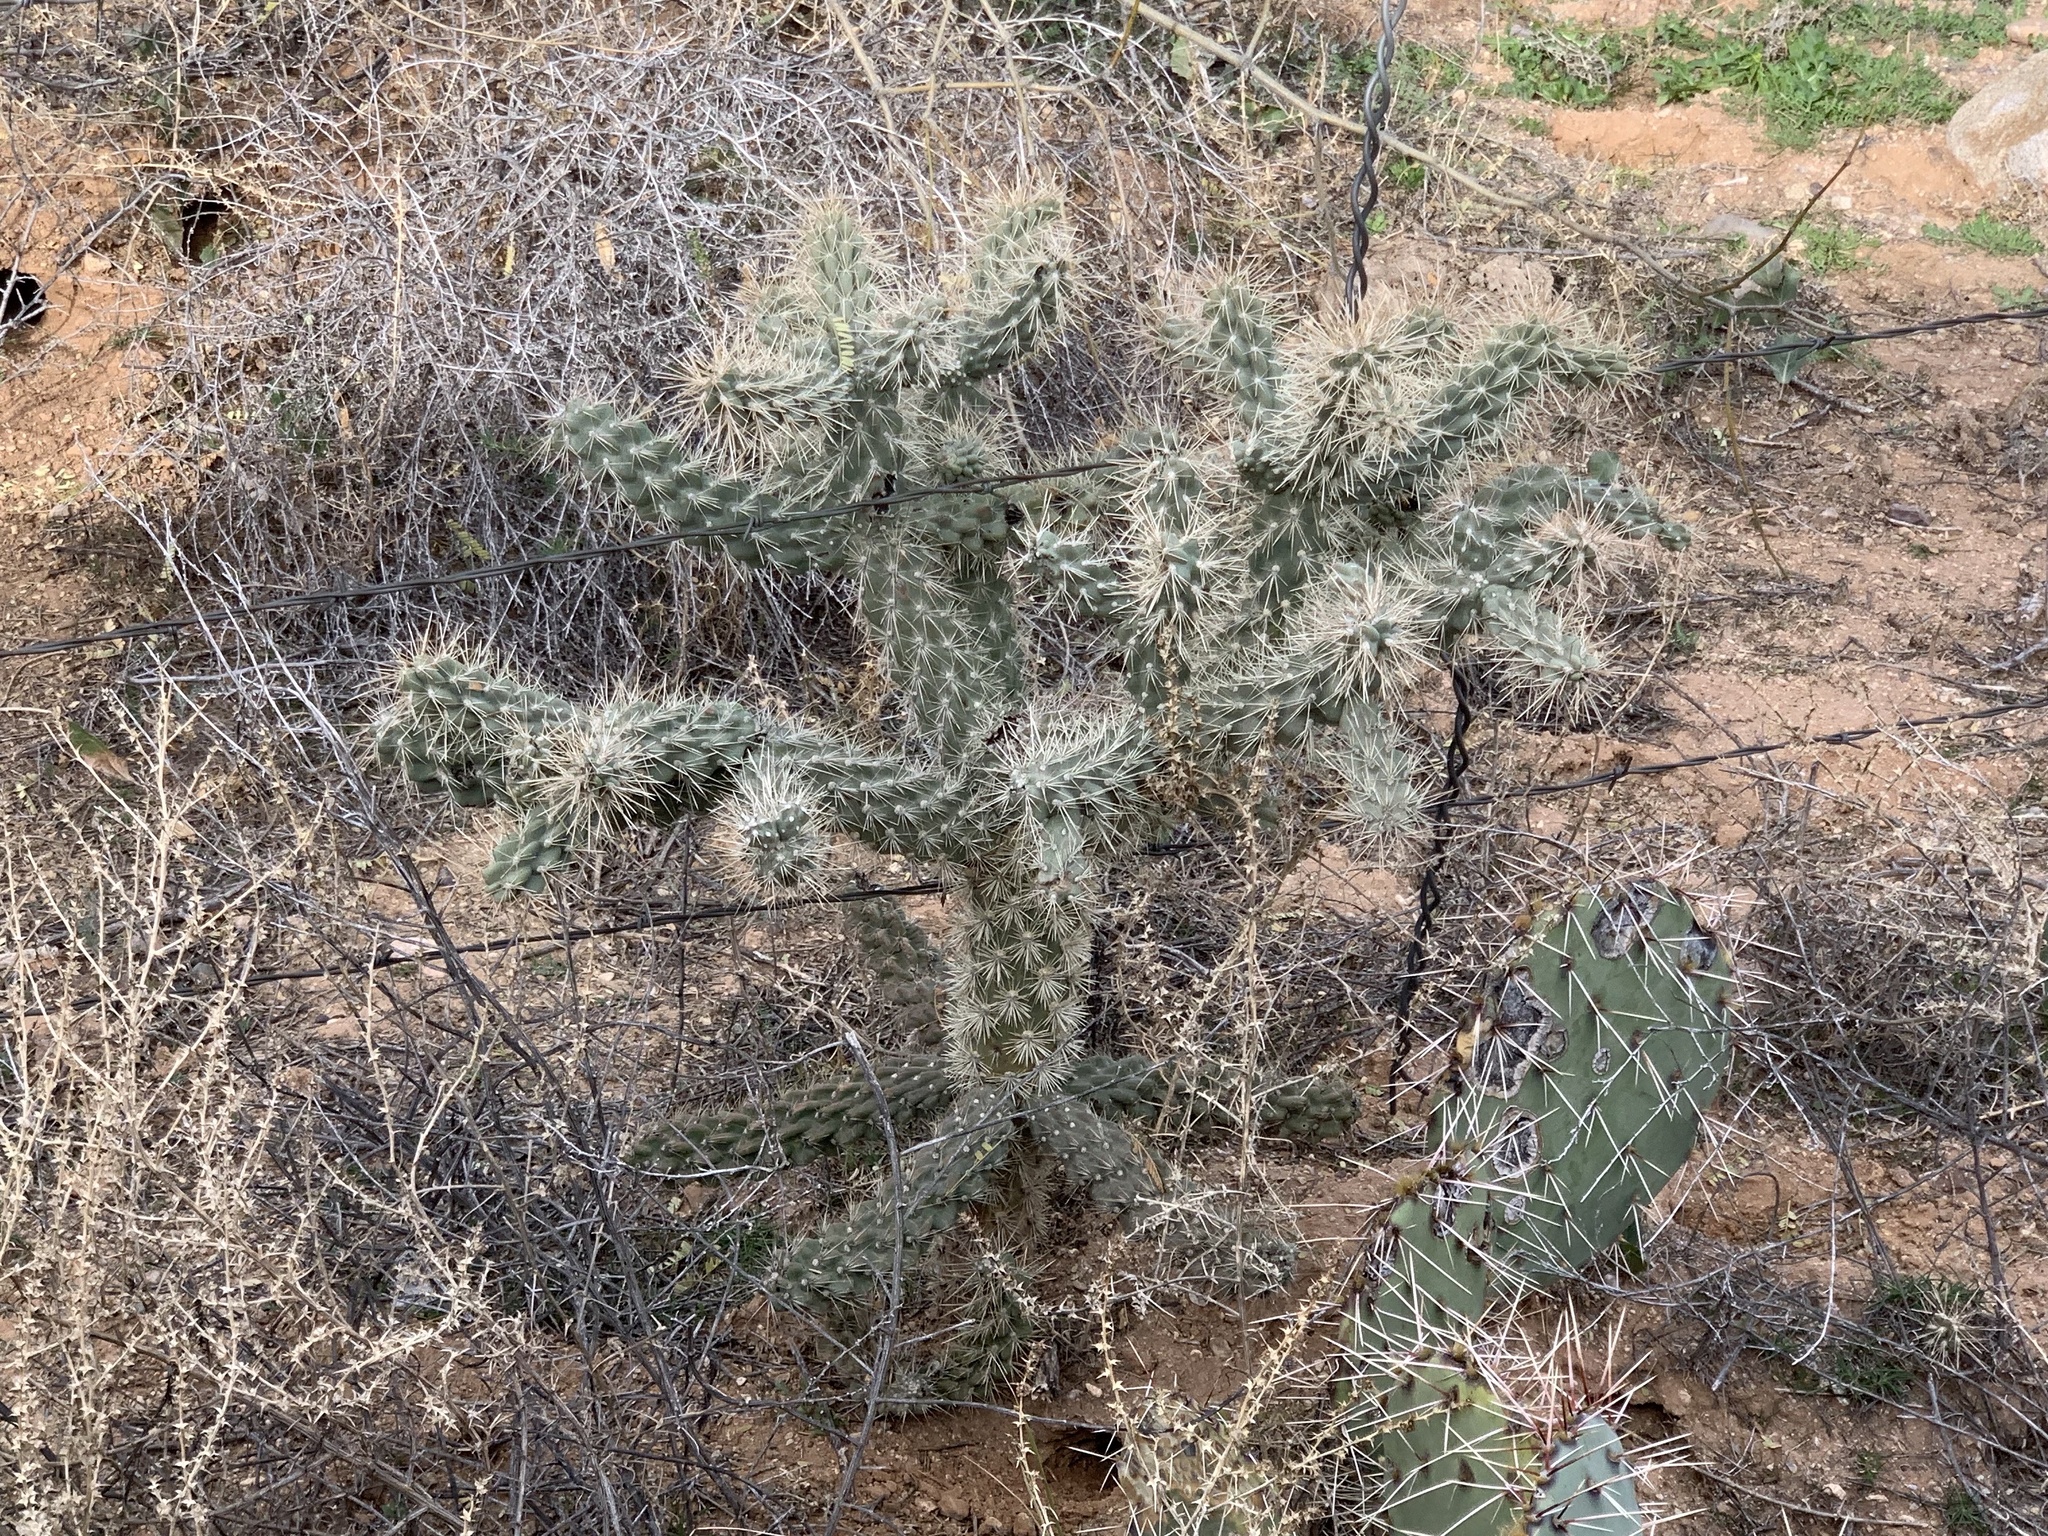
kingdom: Plantae
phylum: Tracheophyta
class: Magnoliopsida
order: Caryophyllales
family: Cactaceae
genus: Cylindropuntia
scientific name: Cylindropuntia fulgida
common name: Jumping cholla
